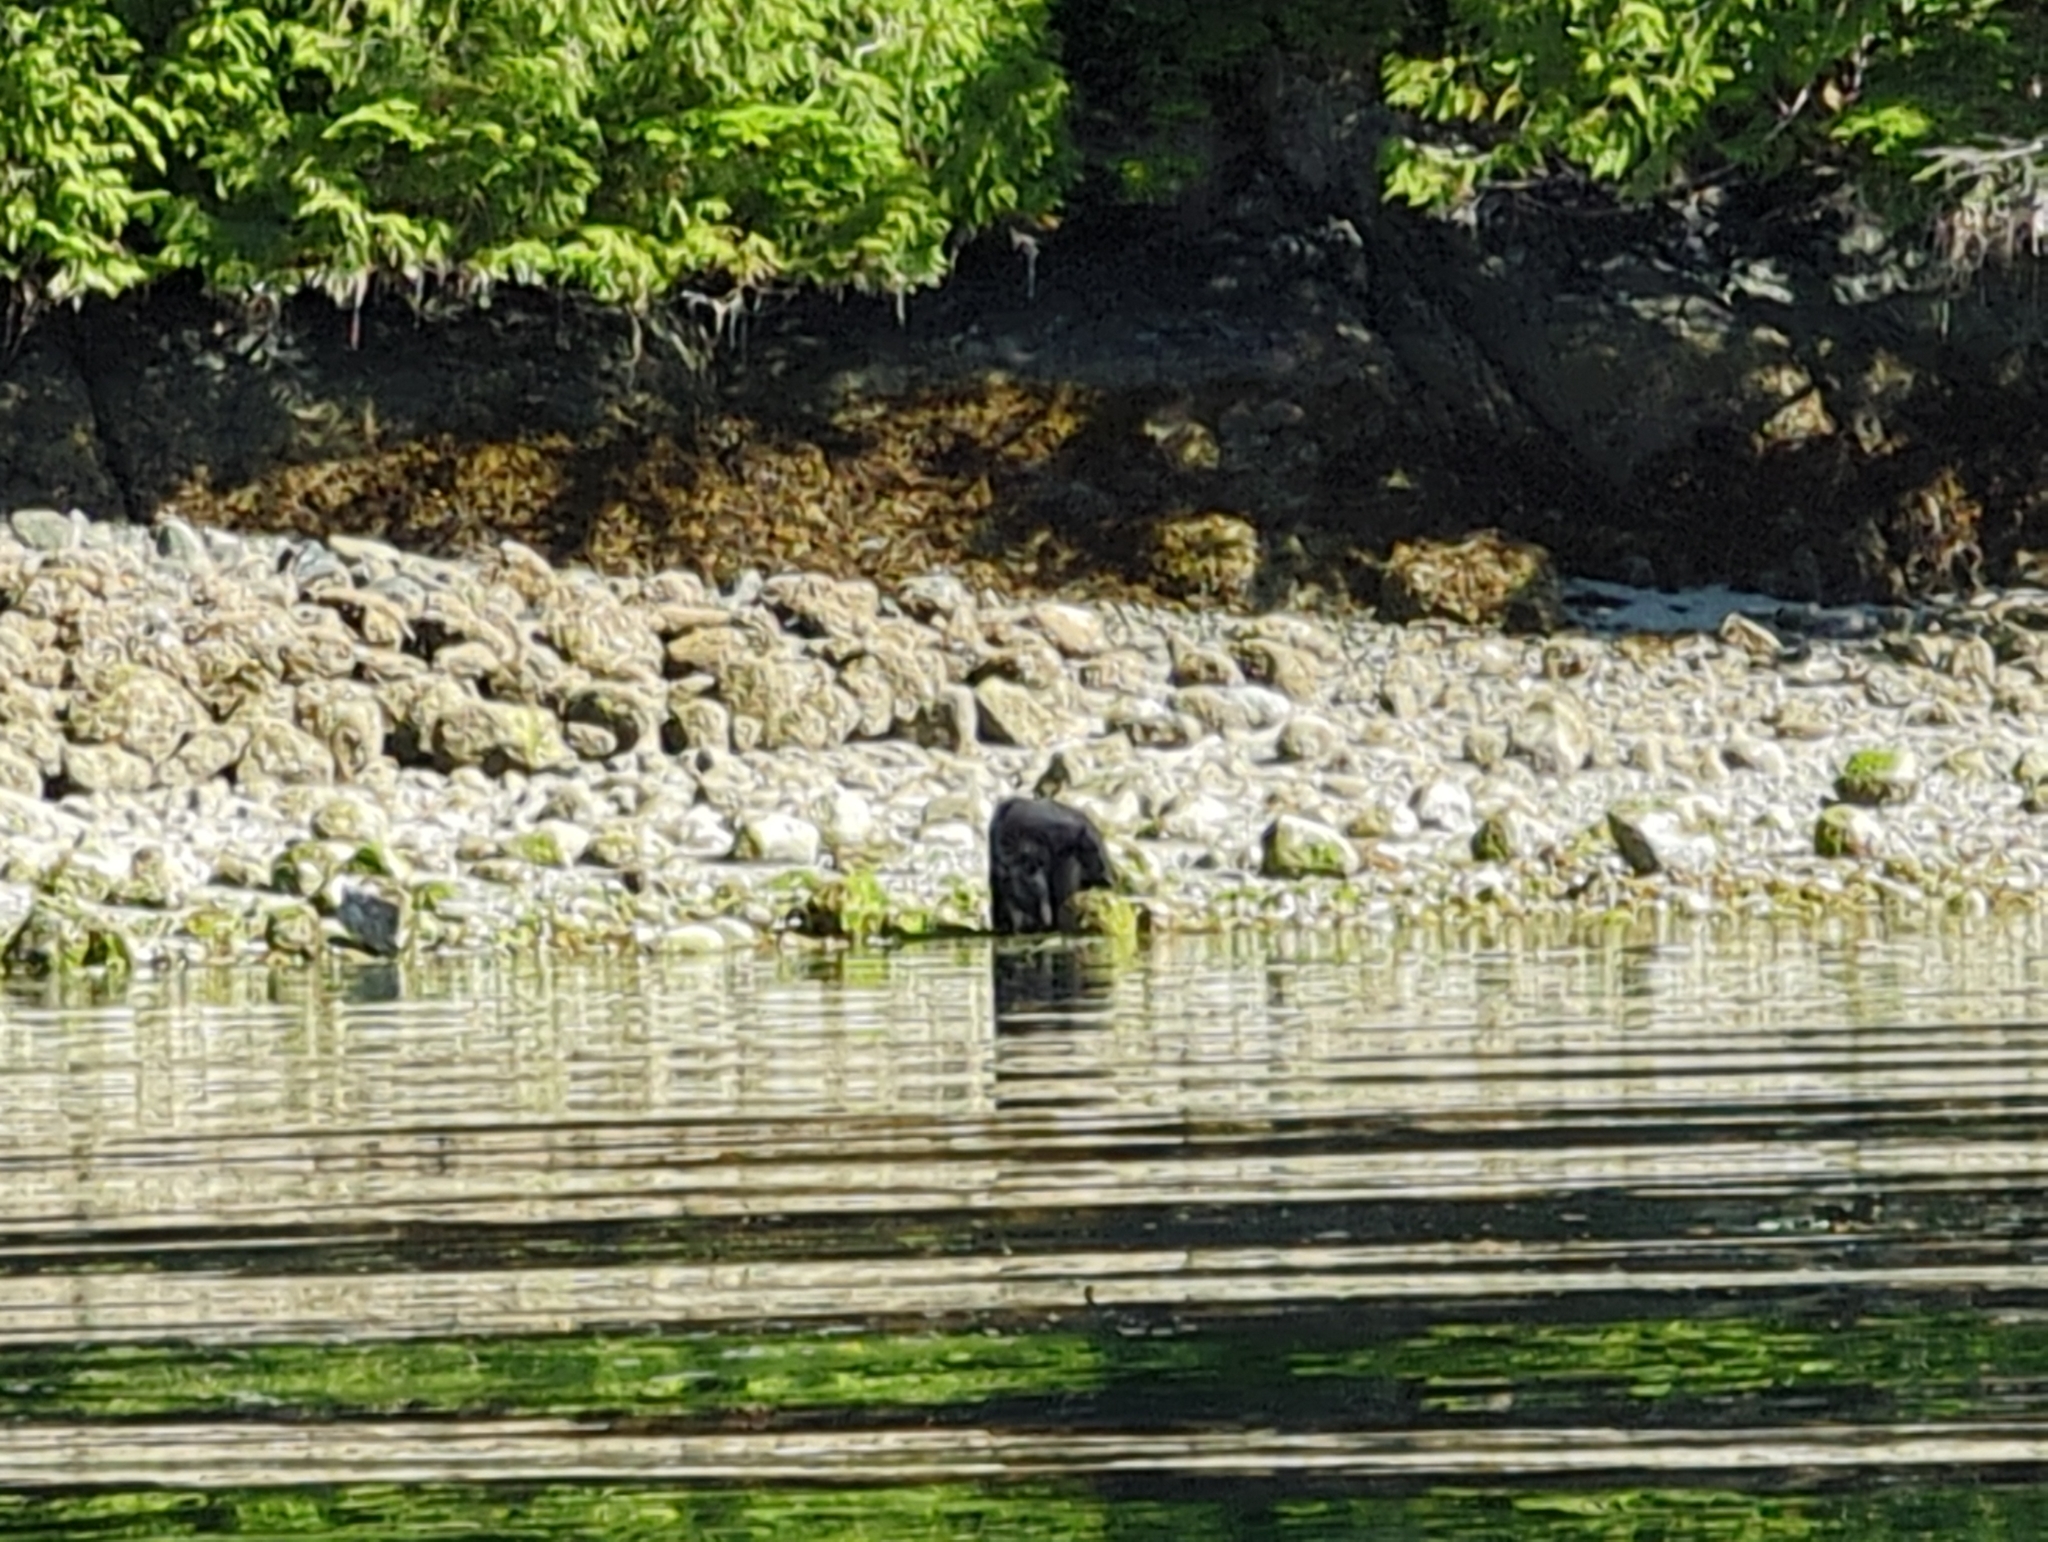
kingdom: Animalia
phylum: Chordata
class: Mammalia
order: Carnivora
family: Ursidae
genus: Ursus
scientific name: Ursus americanus
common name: American black bear
